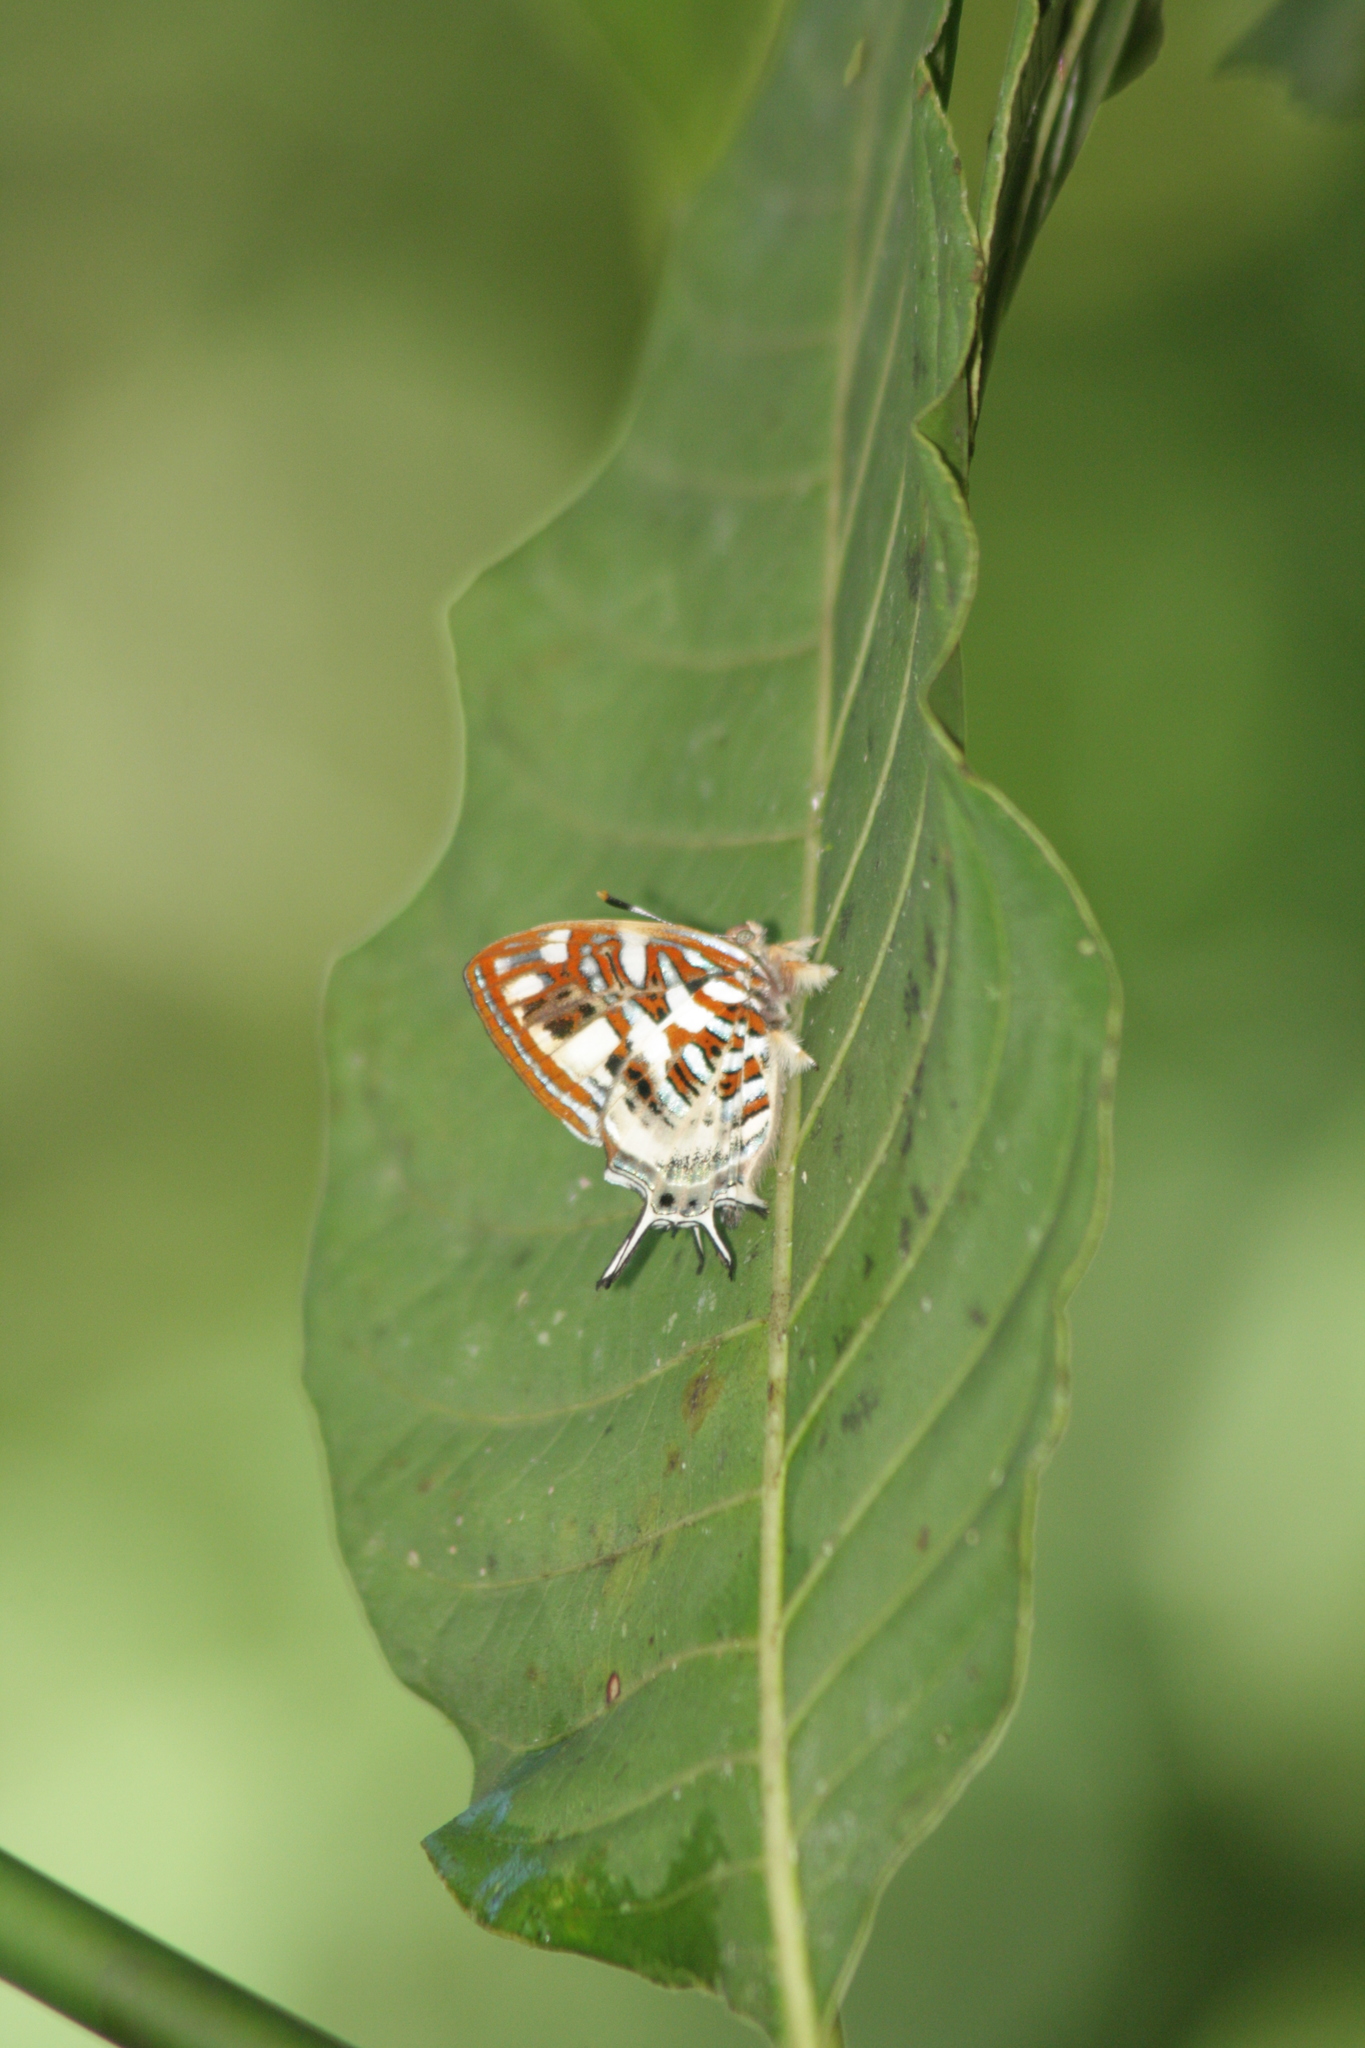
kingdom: Animalia
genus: Charis
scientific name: Charis Sarota chrysus
